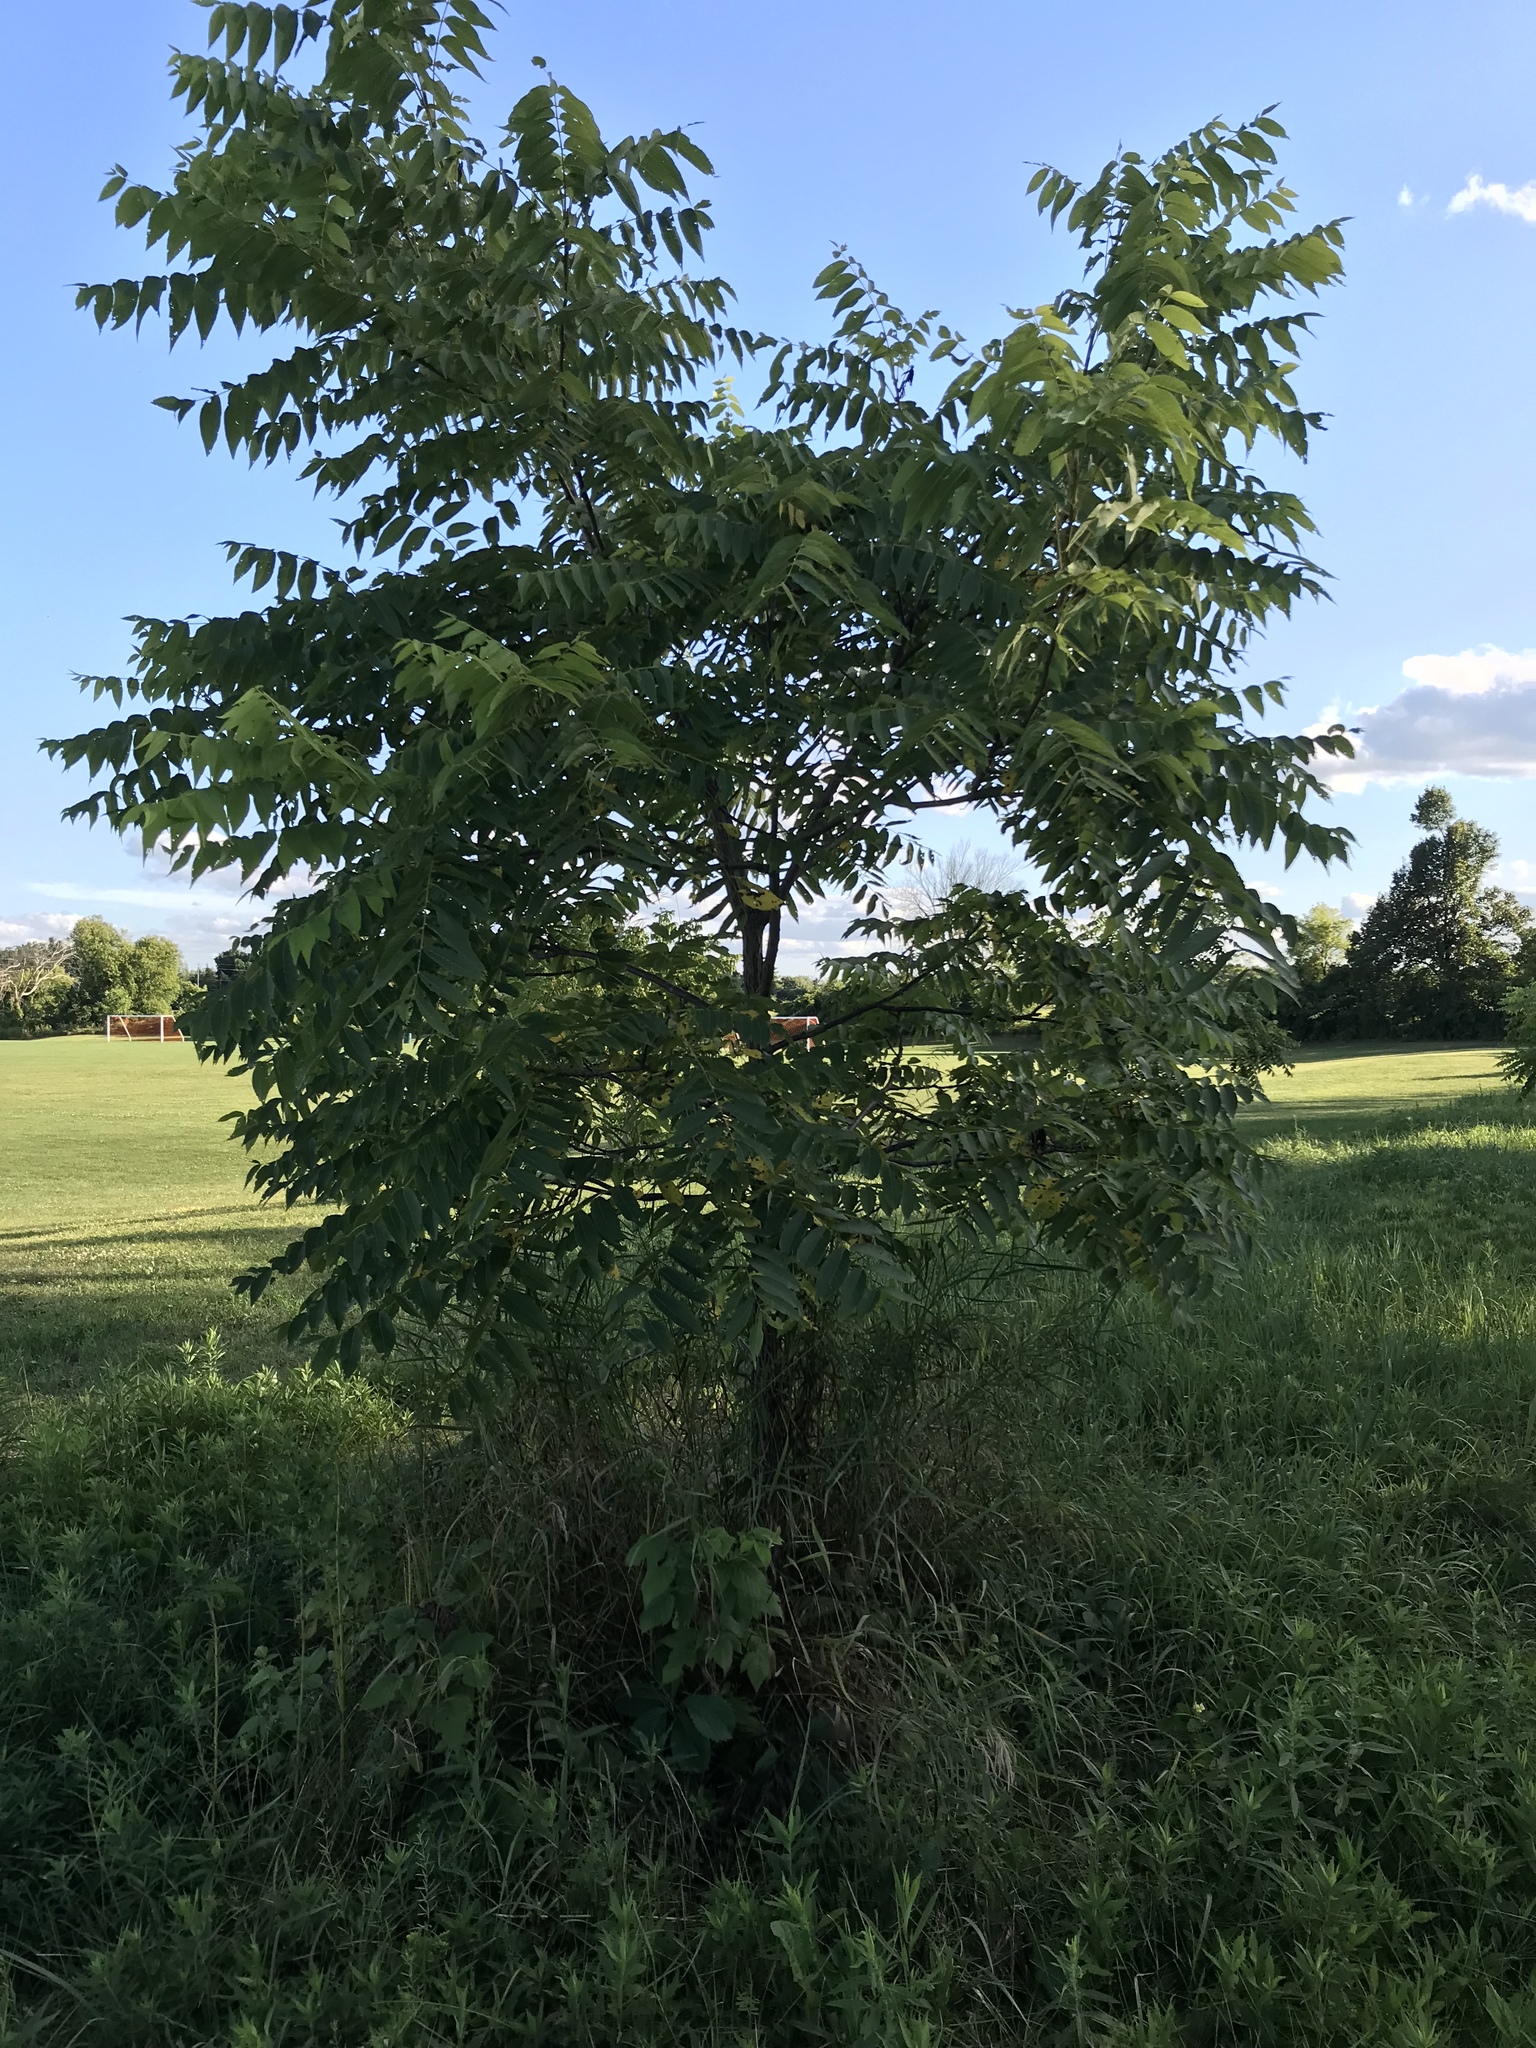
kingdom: Plantae
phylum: Tracheophyta
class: Magnoliopsida
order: Fagales
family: Juglandaceae
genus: Juglans
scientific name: Juglans nigra
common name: Black walnut
